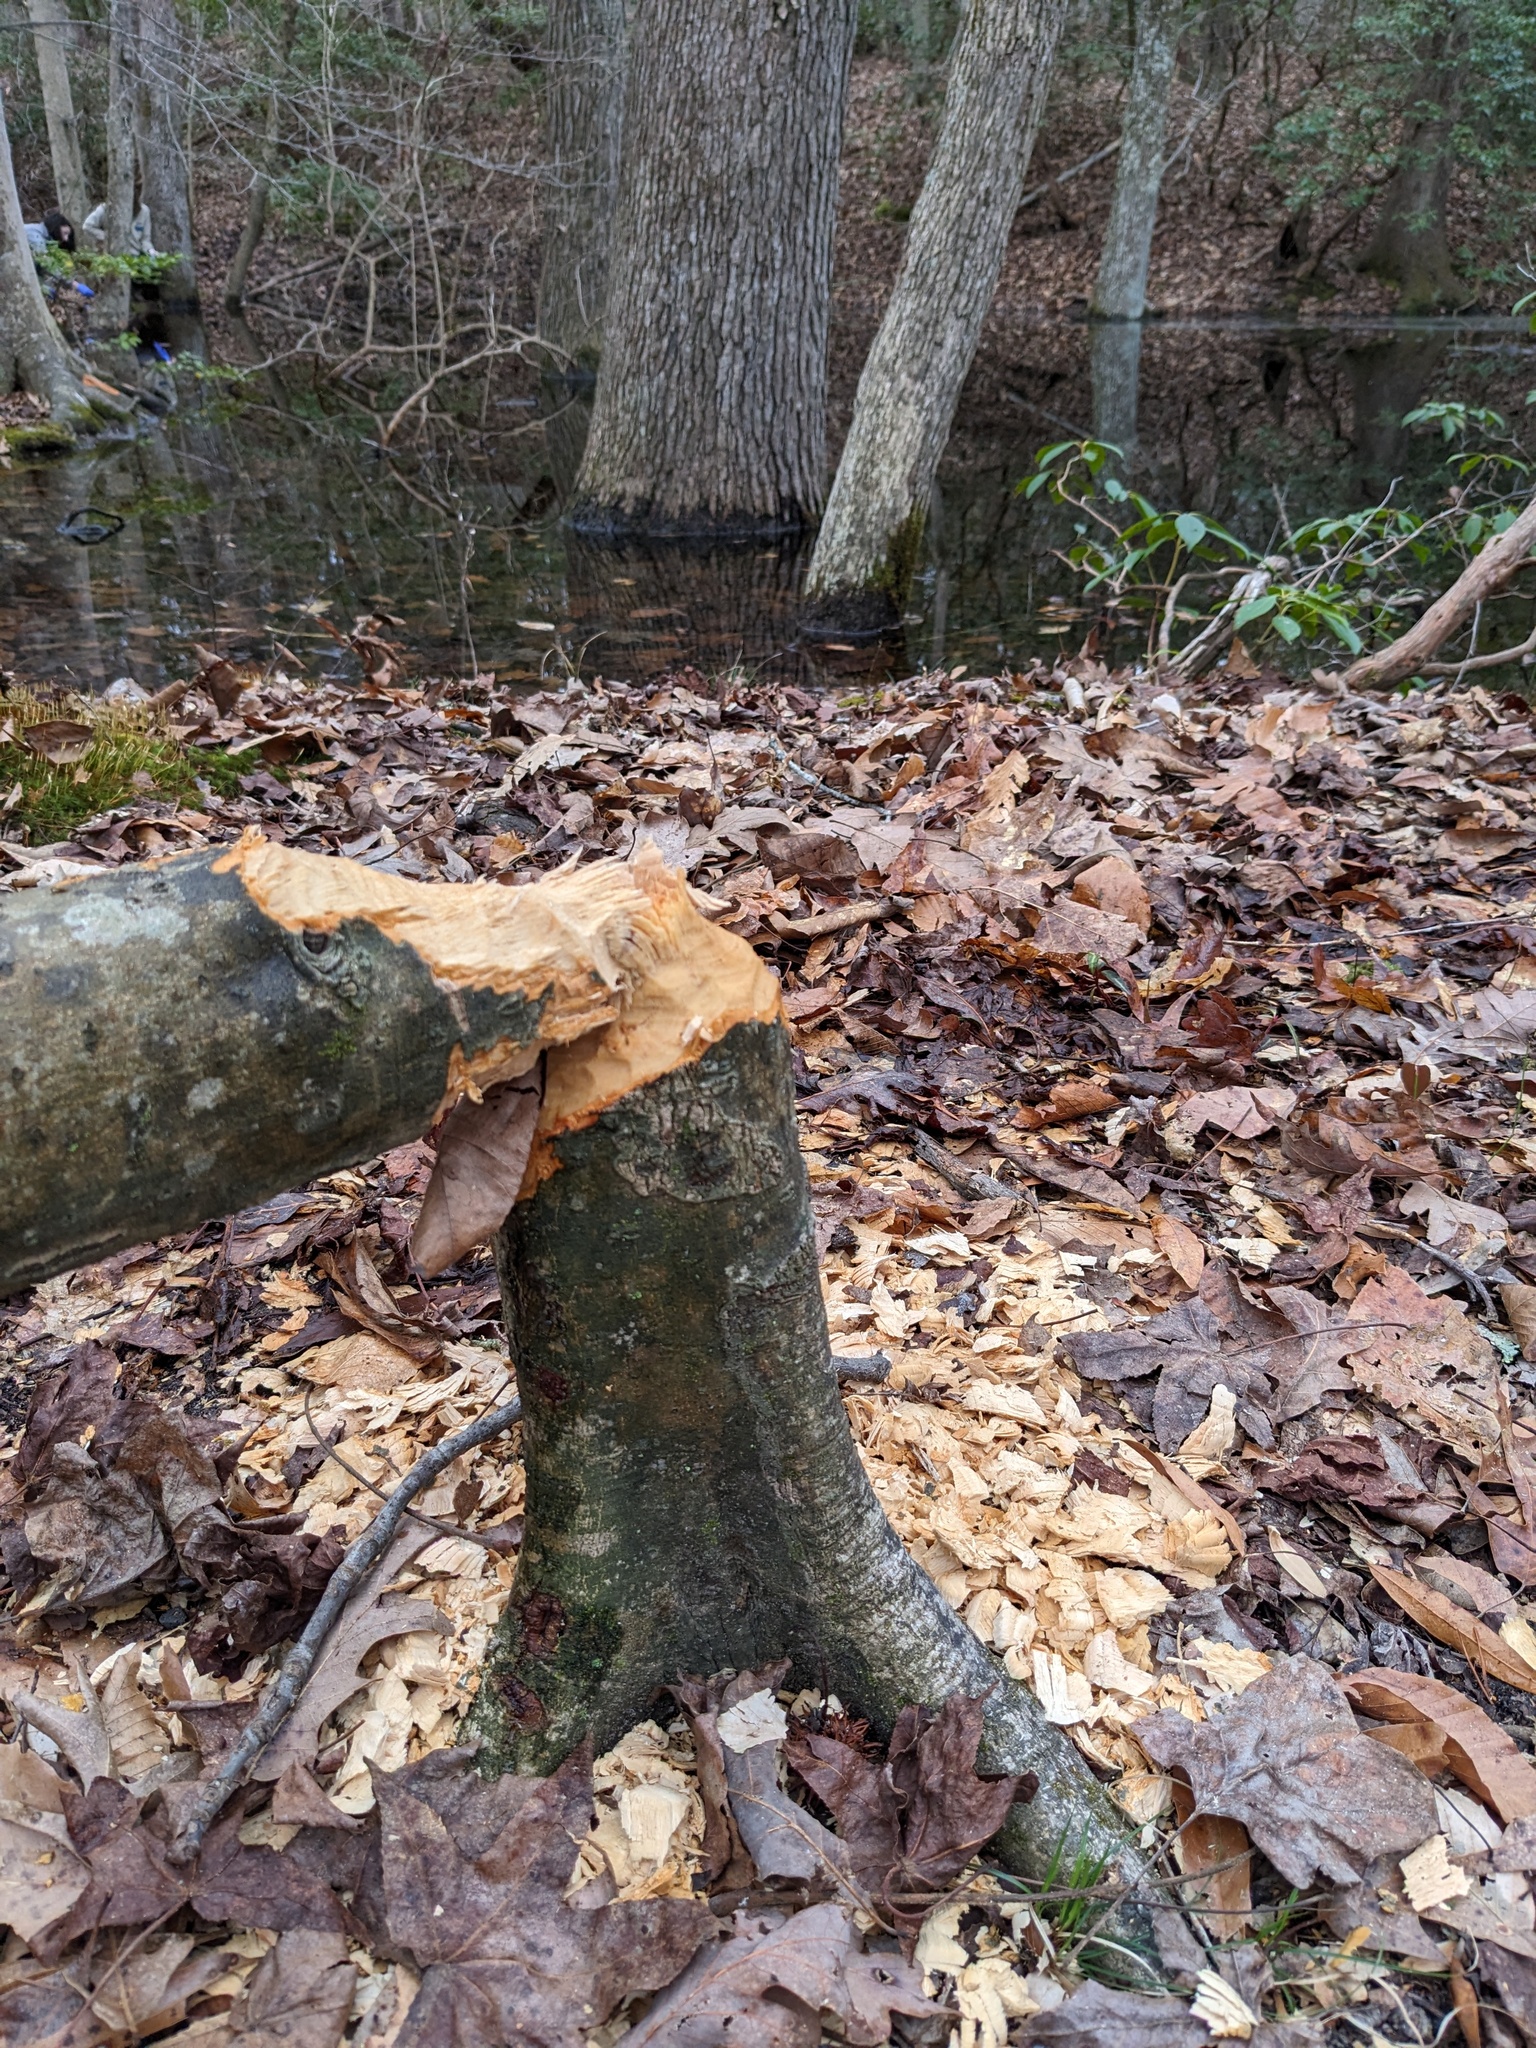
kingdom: Animalia
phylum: Chordata
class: Mammalia
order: Rodentia
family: Castoridae
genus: Castor
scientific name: Castor canadensis
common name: American beaver
